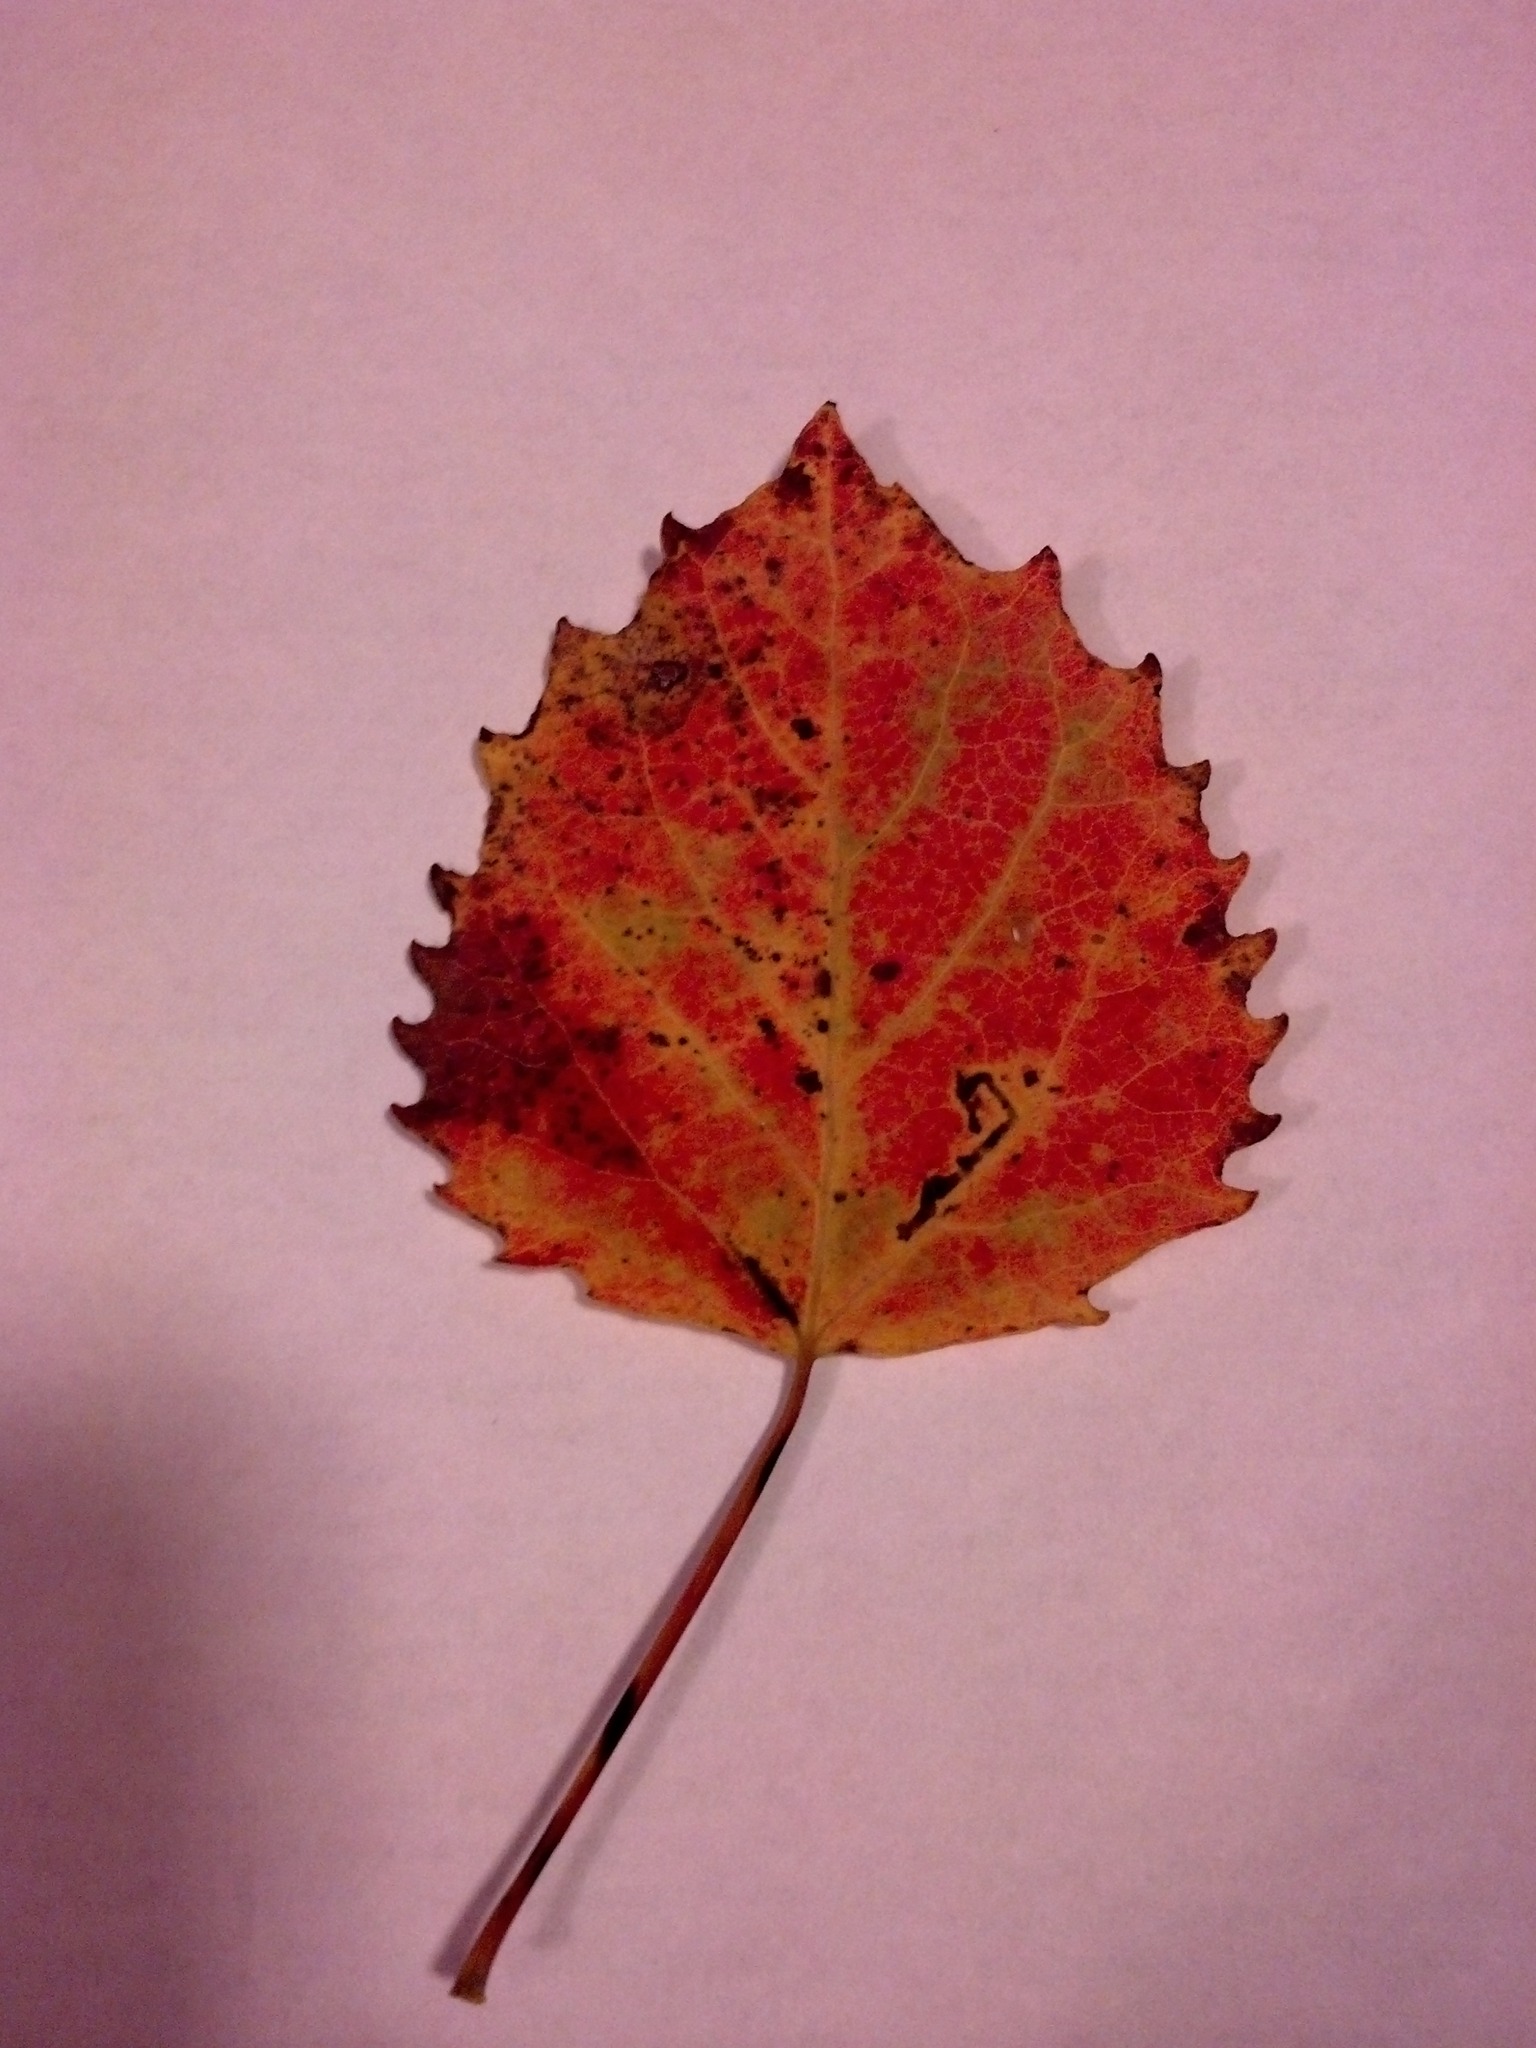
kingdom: Plantae
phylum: Tracheophyta
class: Magnoliopsida
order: Malpighiales
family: Salicaceae
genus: Populus
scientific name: Populus grandidentata
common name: Bigtooth aspen
